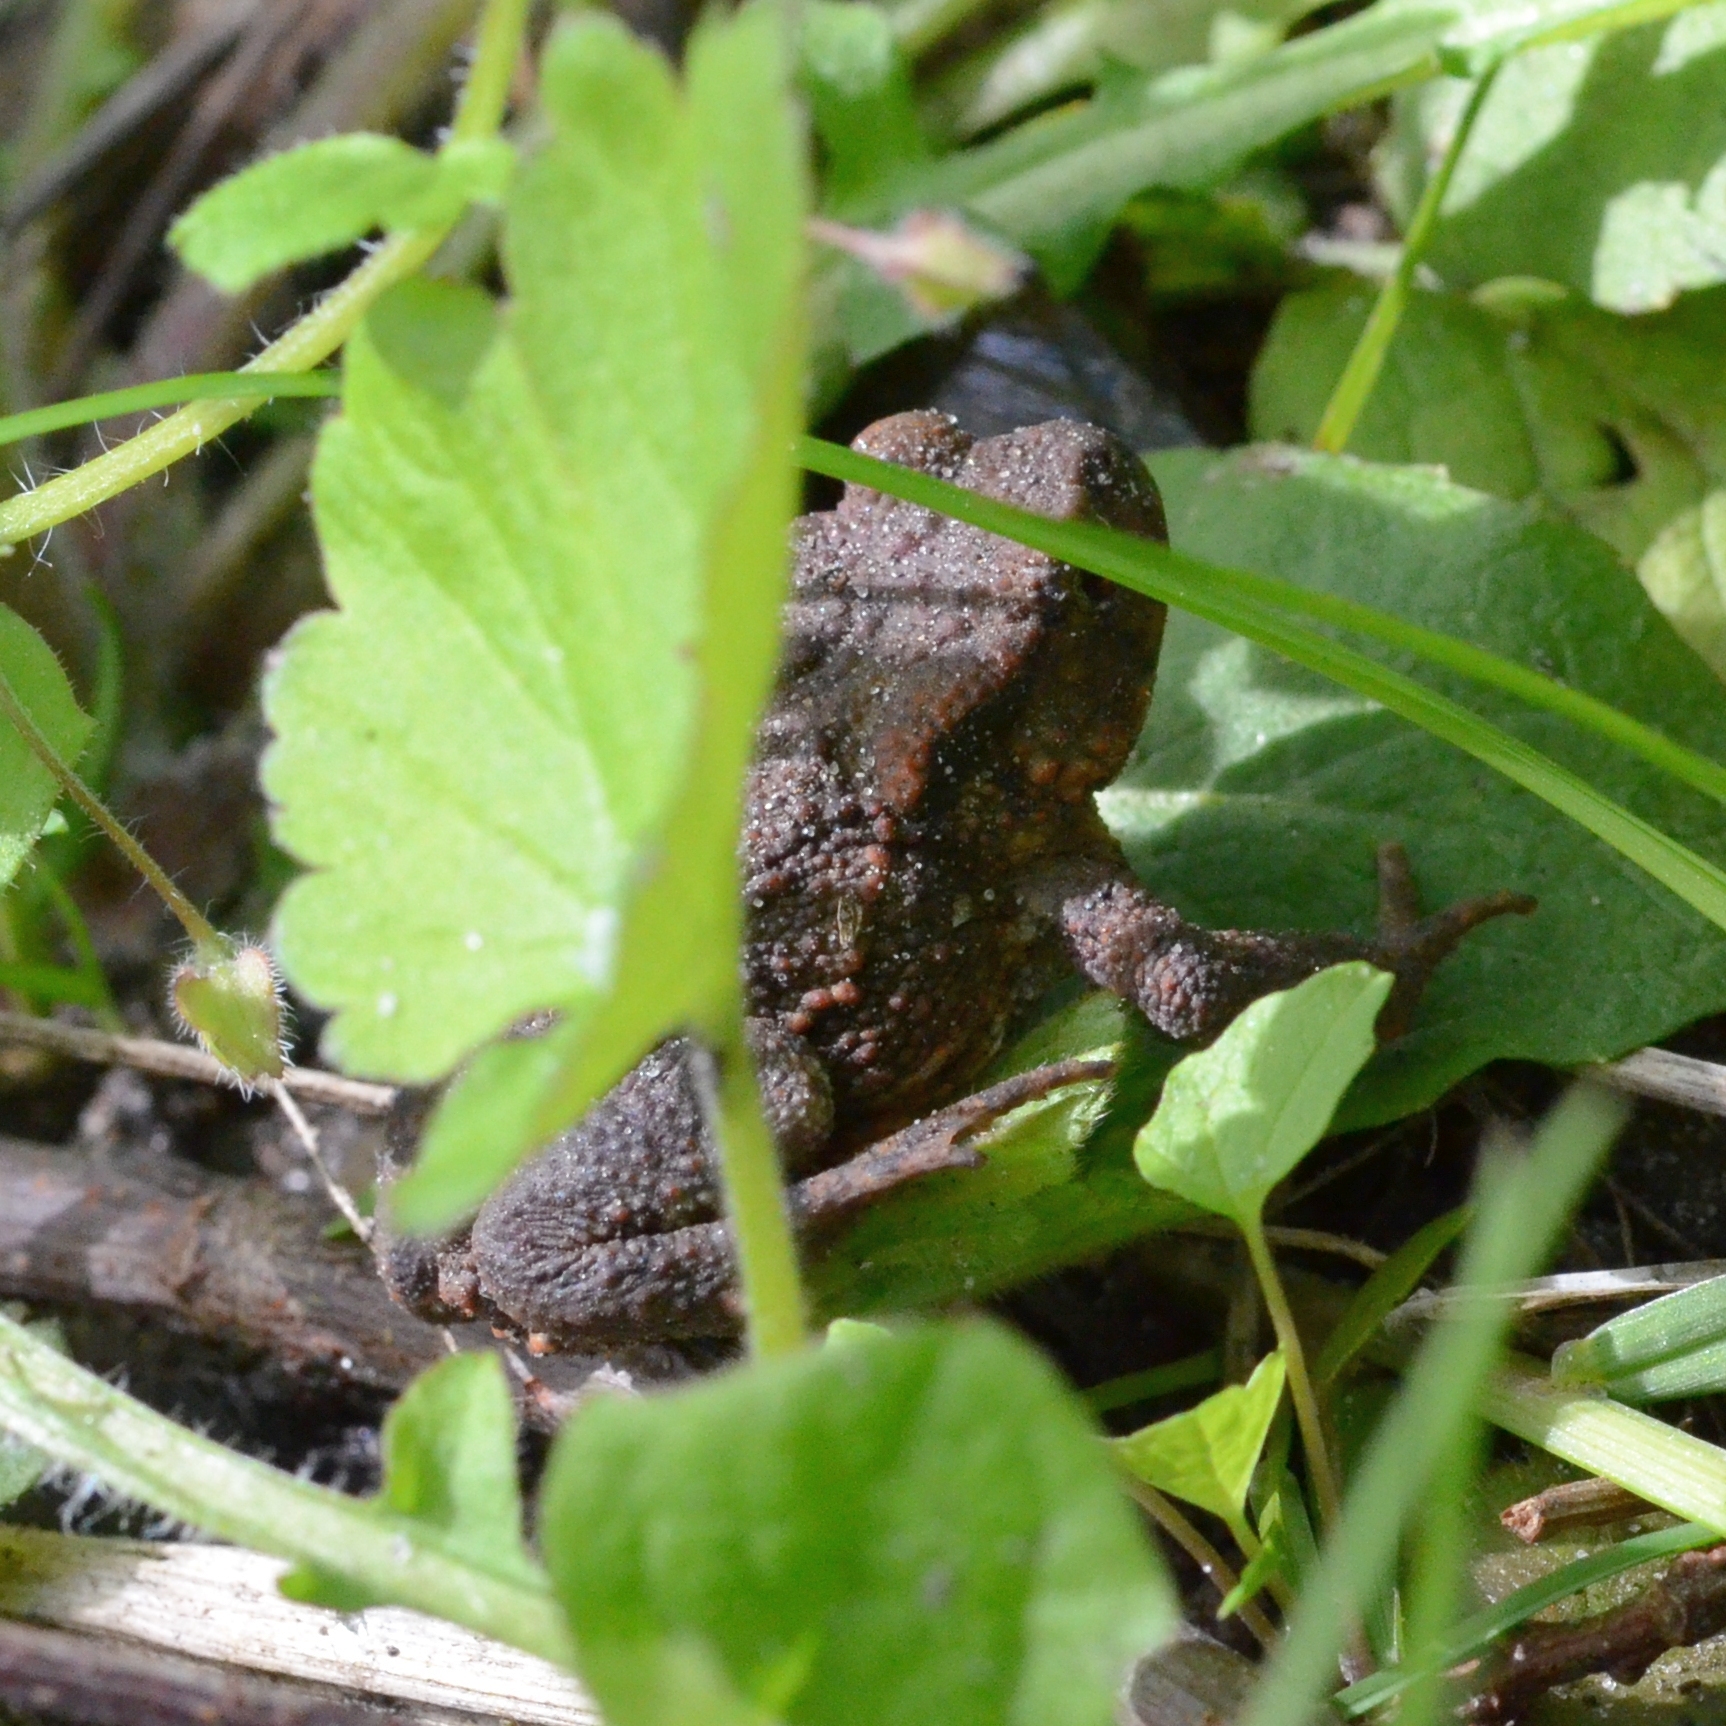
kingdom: Animalia
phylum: Chordata
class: Amphibia
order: Anura
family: Bufonidae
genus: Bufo
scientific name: Bufo bufo
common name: Common toad
